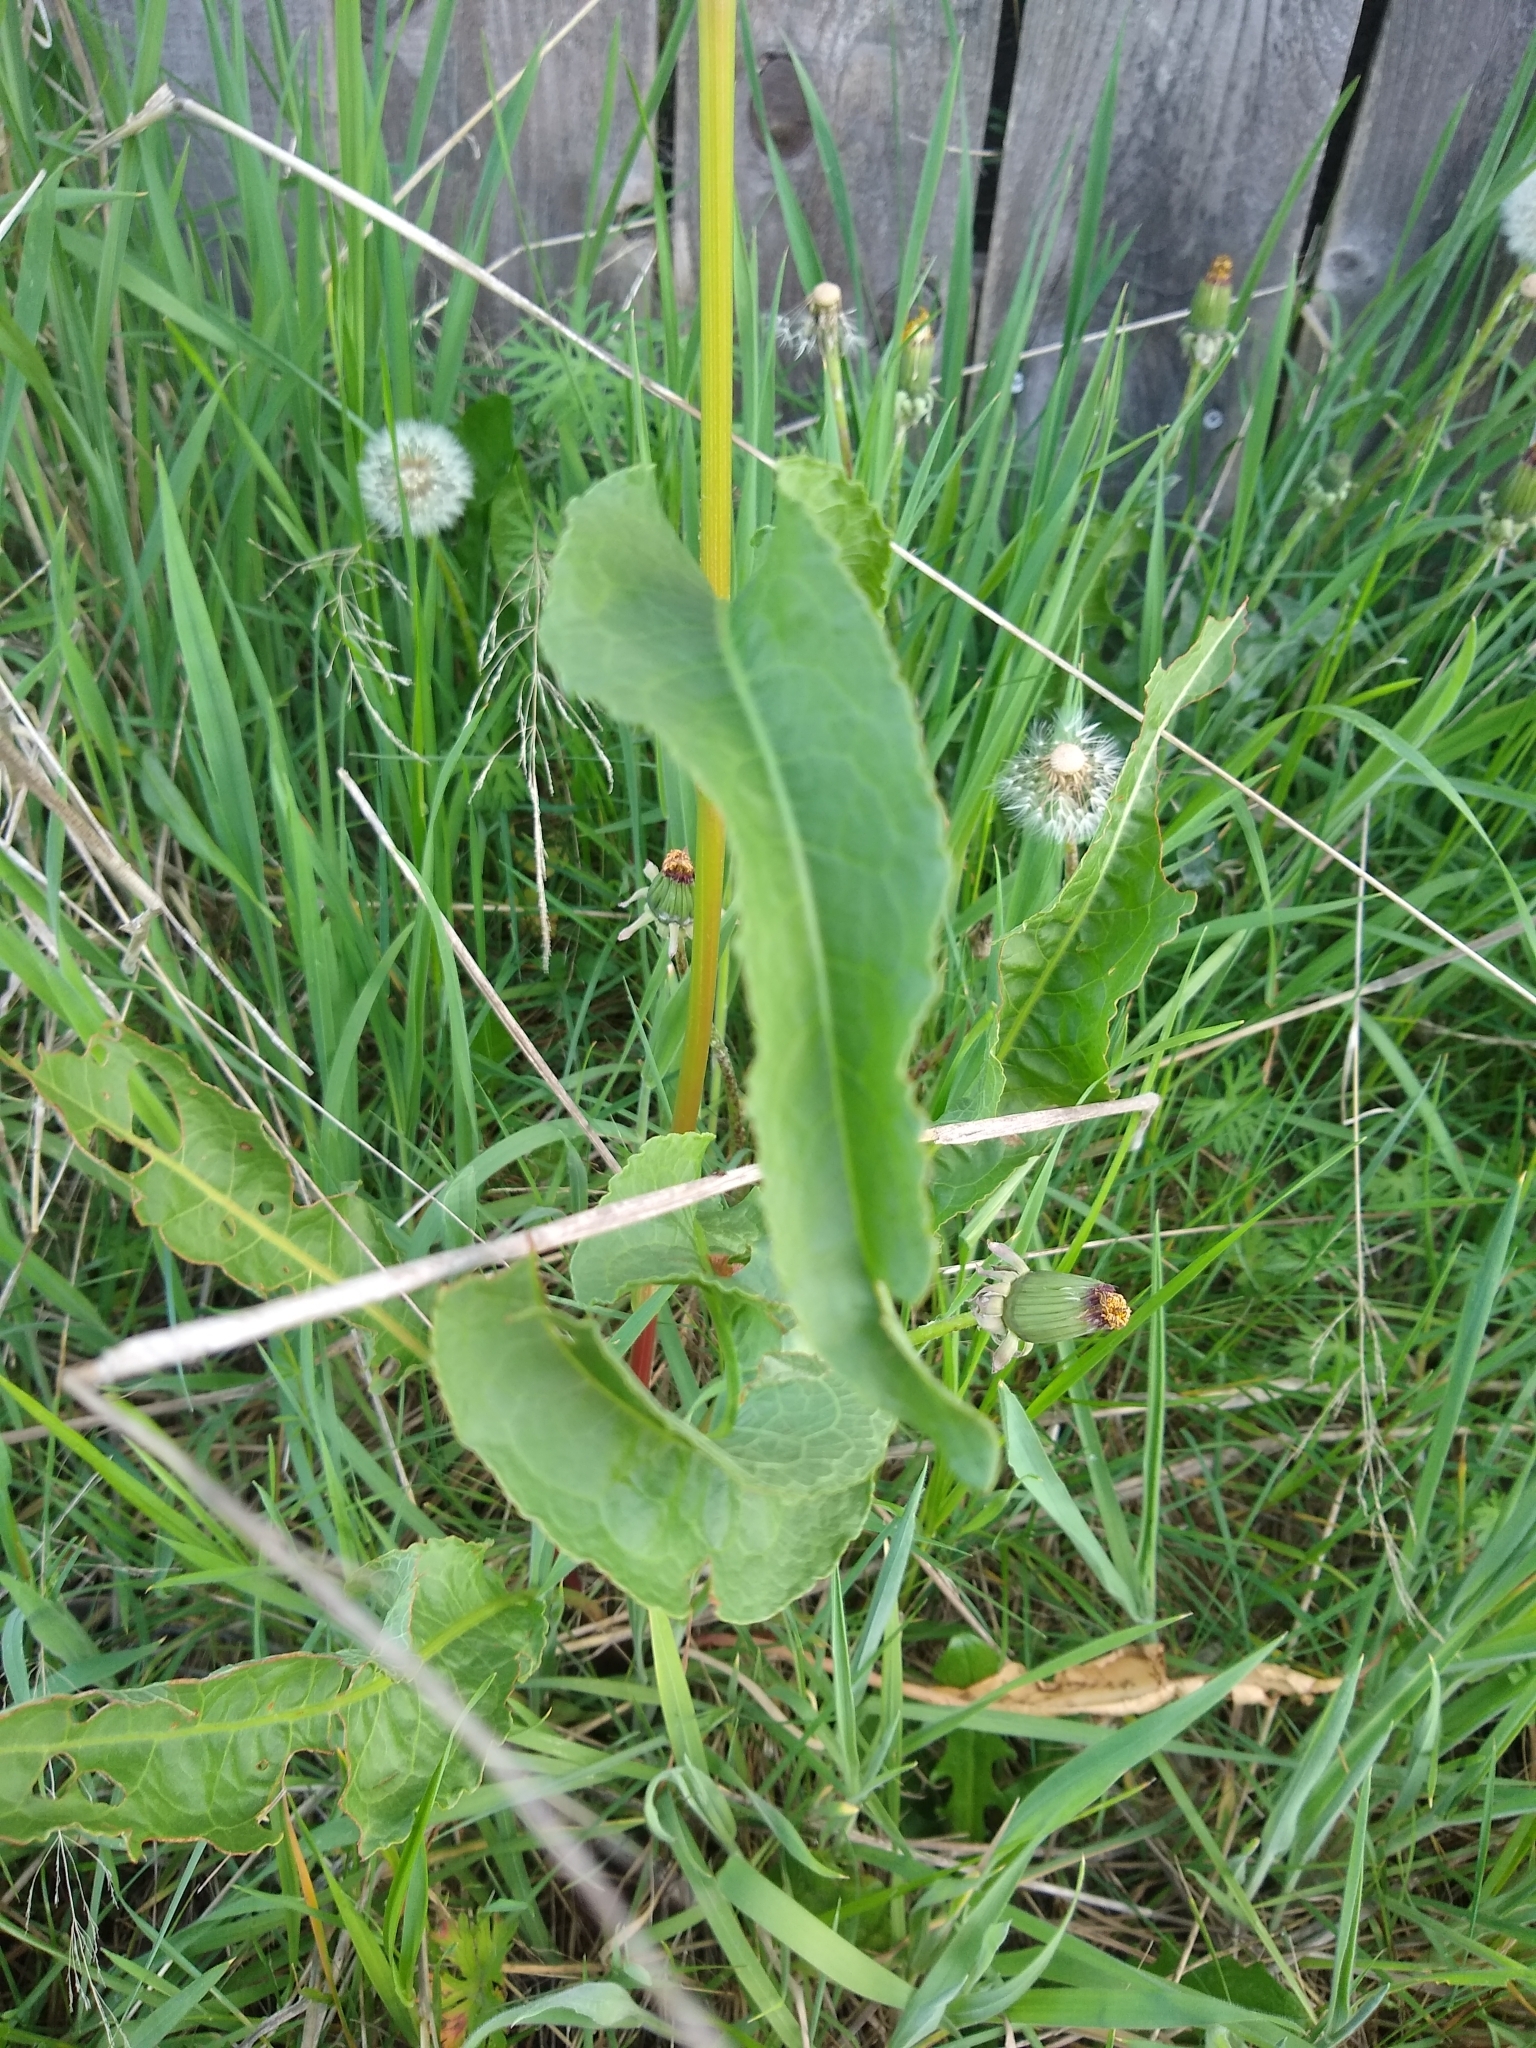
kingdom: Plantae
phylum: Tracheophyta
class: Magnoliopsida
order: Caryophyllales
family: Polygonaceae
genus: Rumex
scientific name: Rumex crispus
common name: Curled dock
